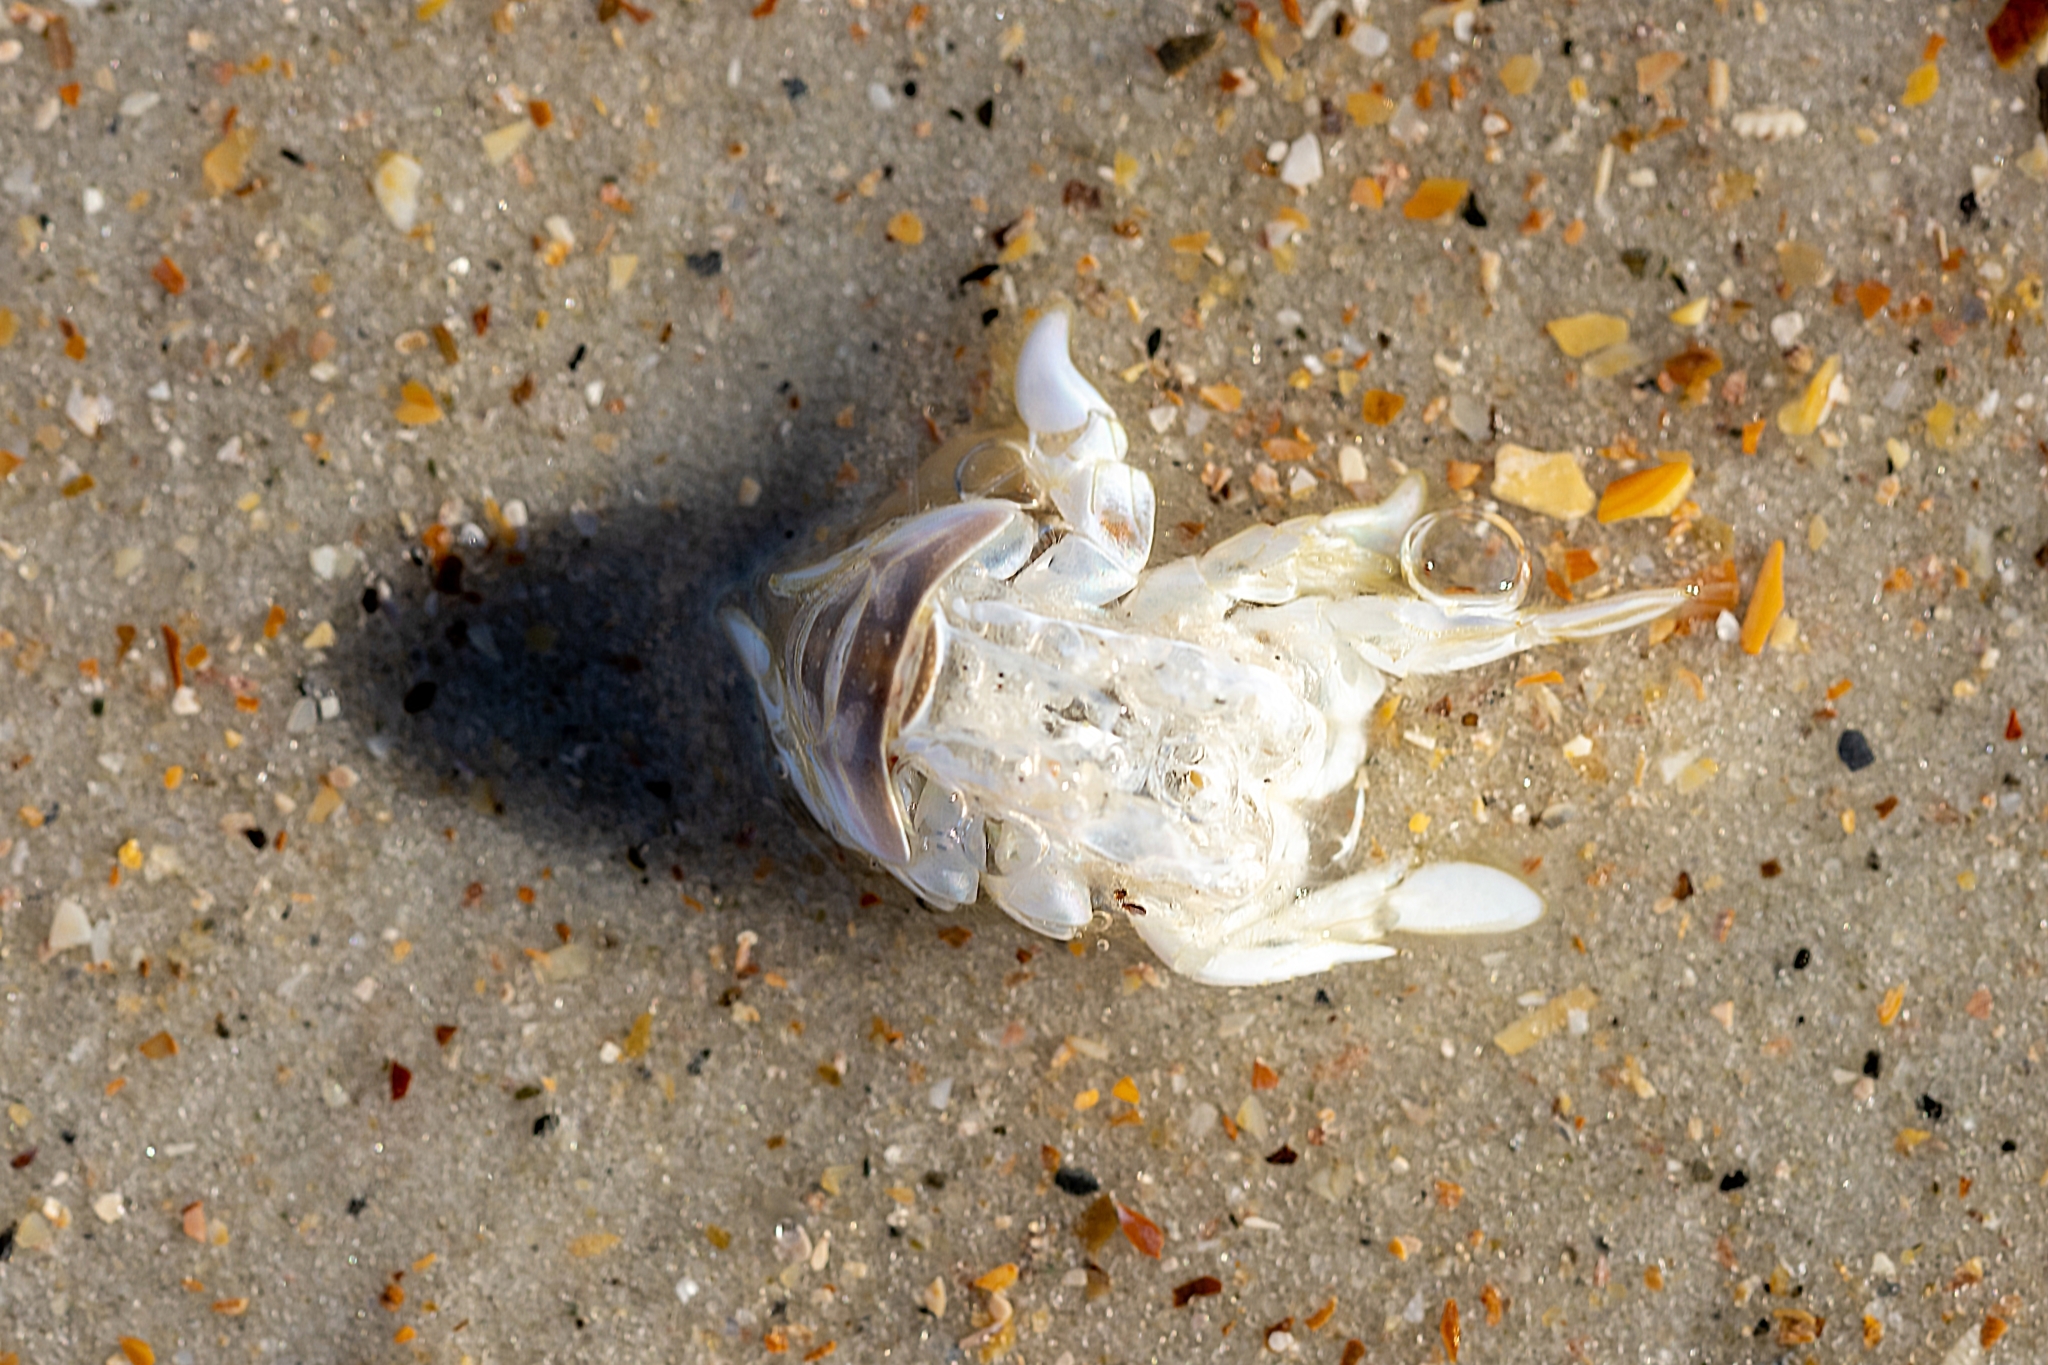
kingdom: Animalia
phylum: Arthropoda
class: Malacostraca
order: Decapoda
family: Hippidae
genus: Emerita
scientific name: Emerita talpoida
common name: Atlantic sand crab
